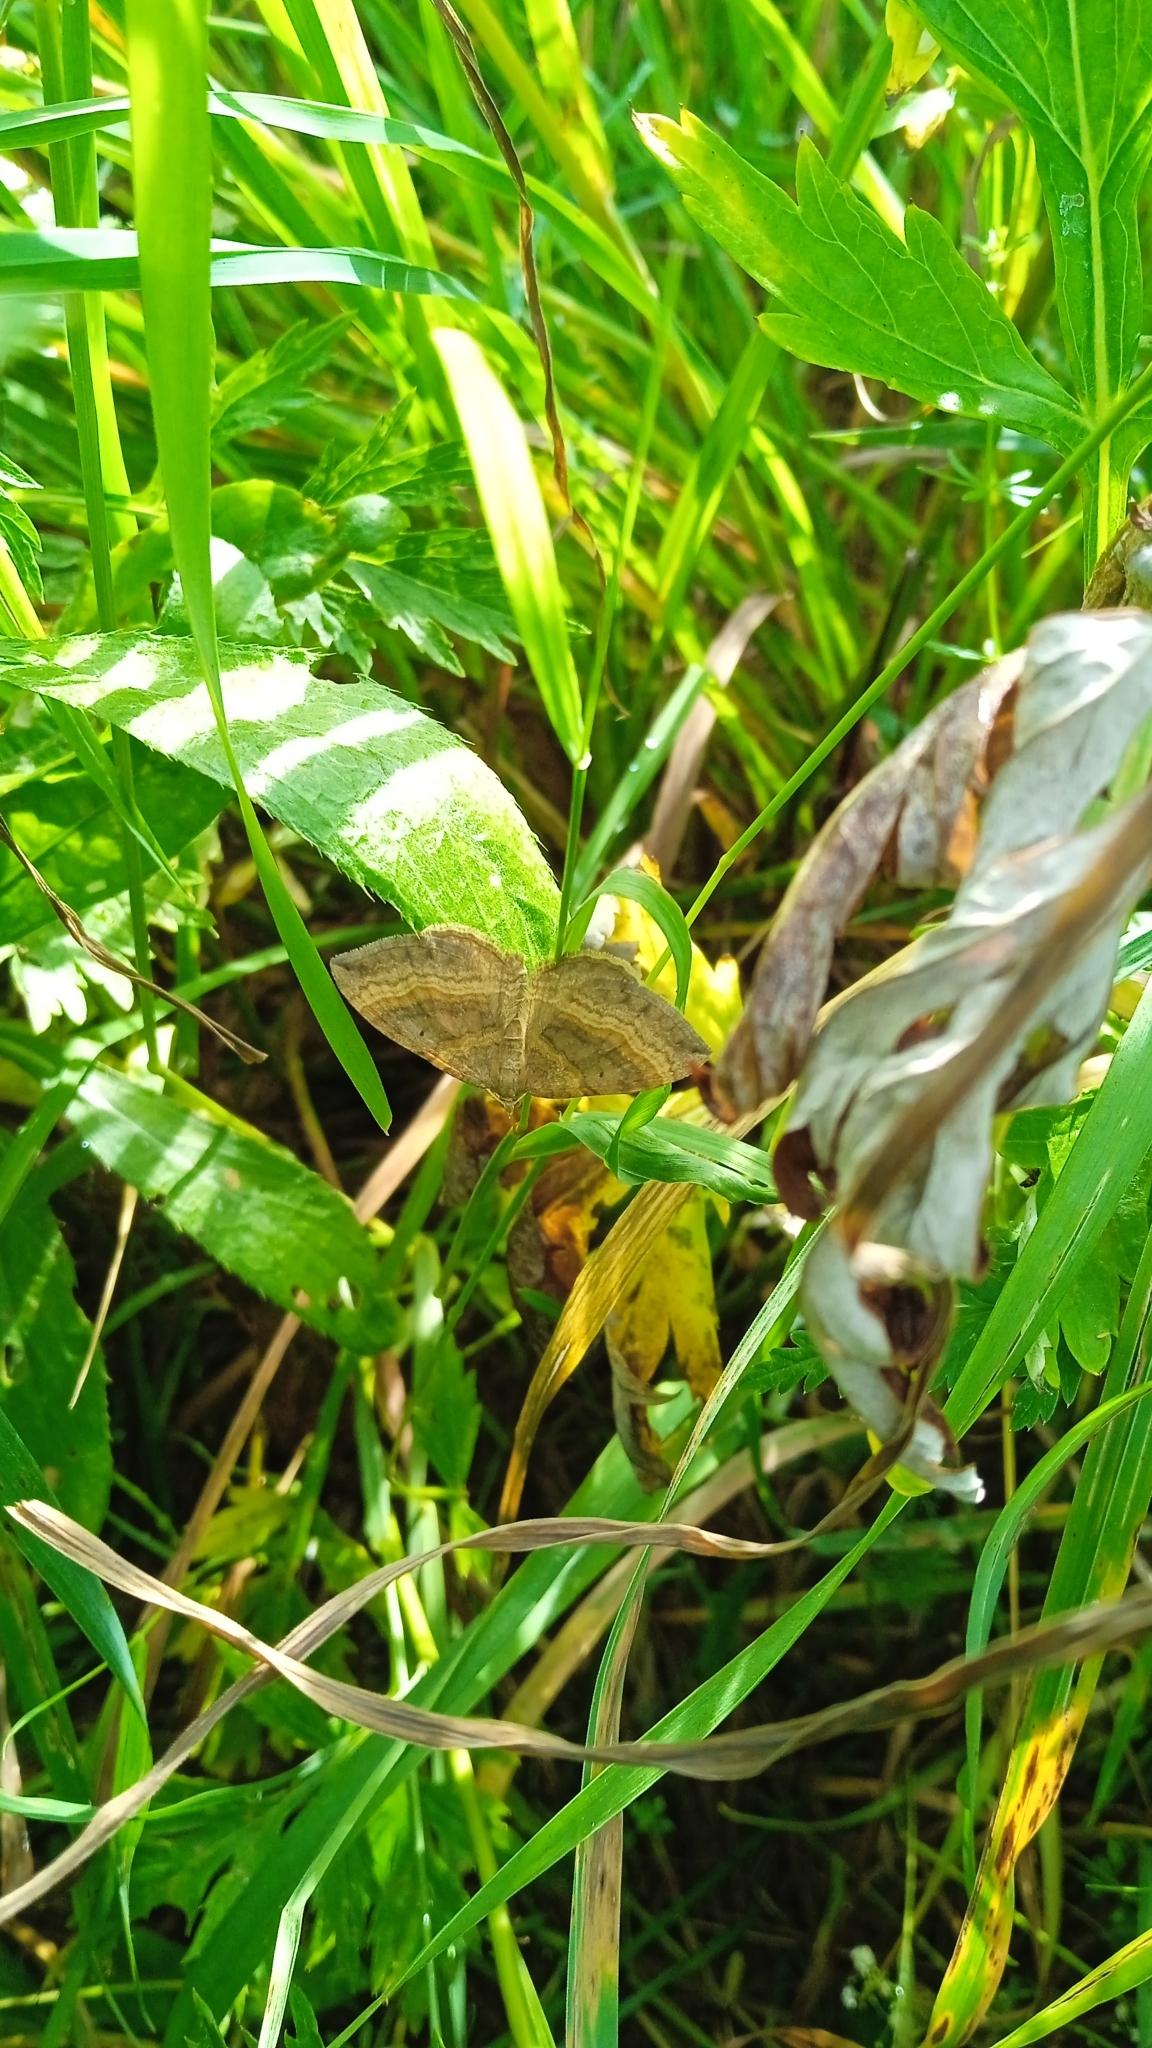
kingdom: Animalia
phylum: Arthropoda
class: Insecta
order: Lepidoptera
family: Geometridae
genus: Scotopteryx
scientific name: Scotopteryx chenopodiata
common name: Shaded broad-bar
